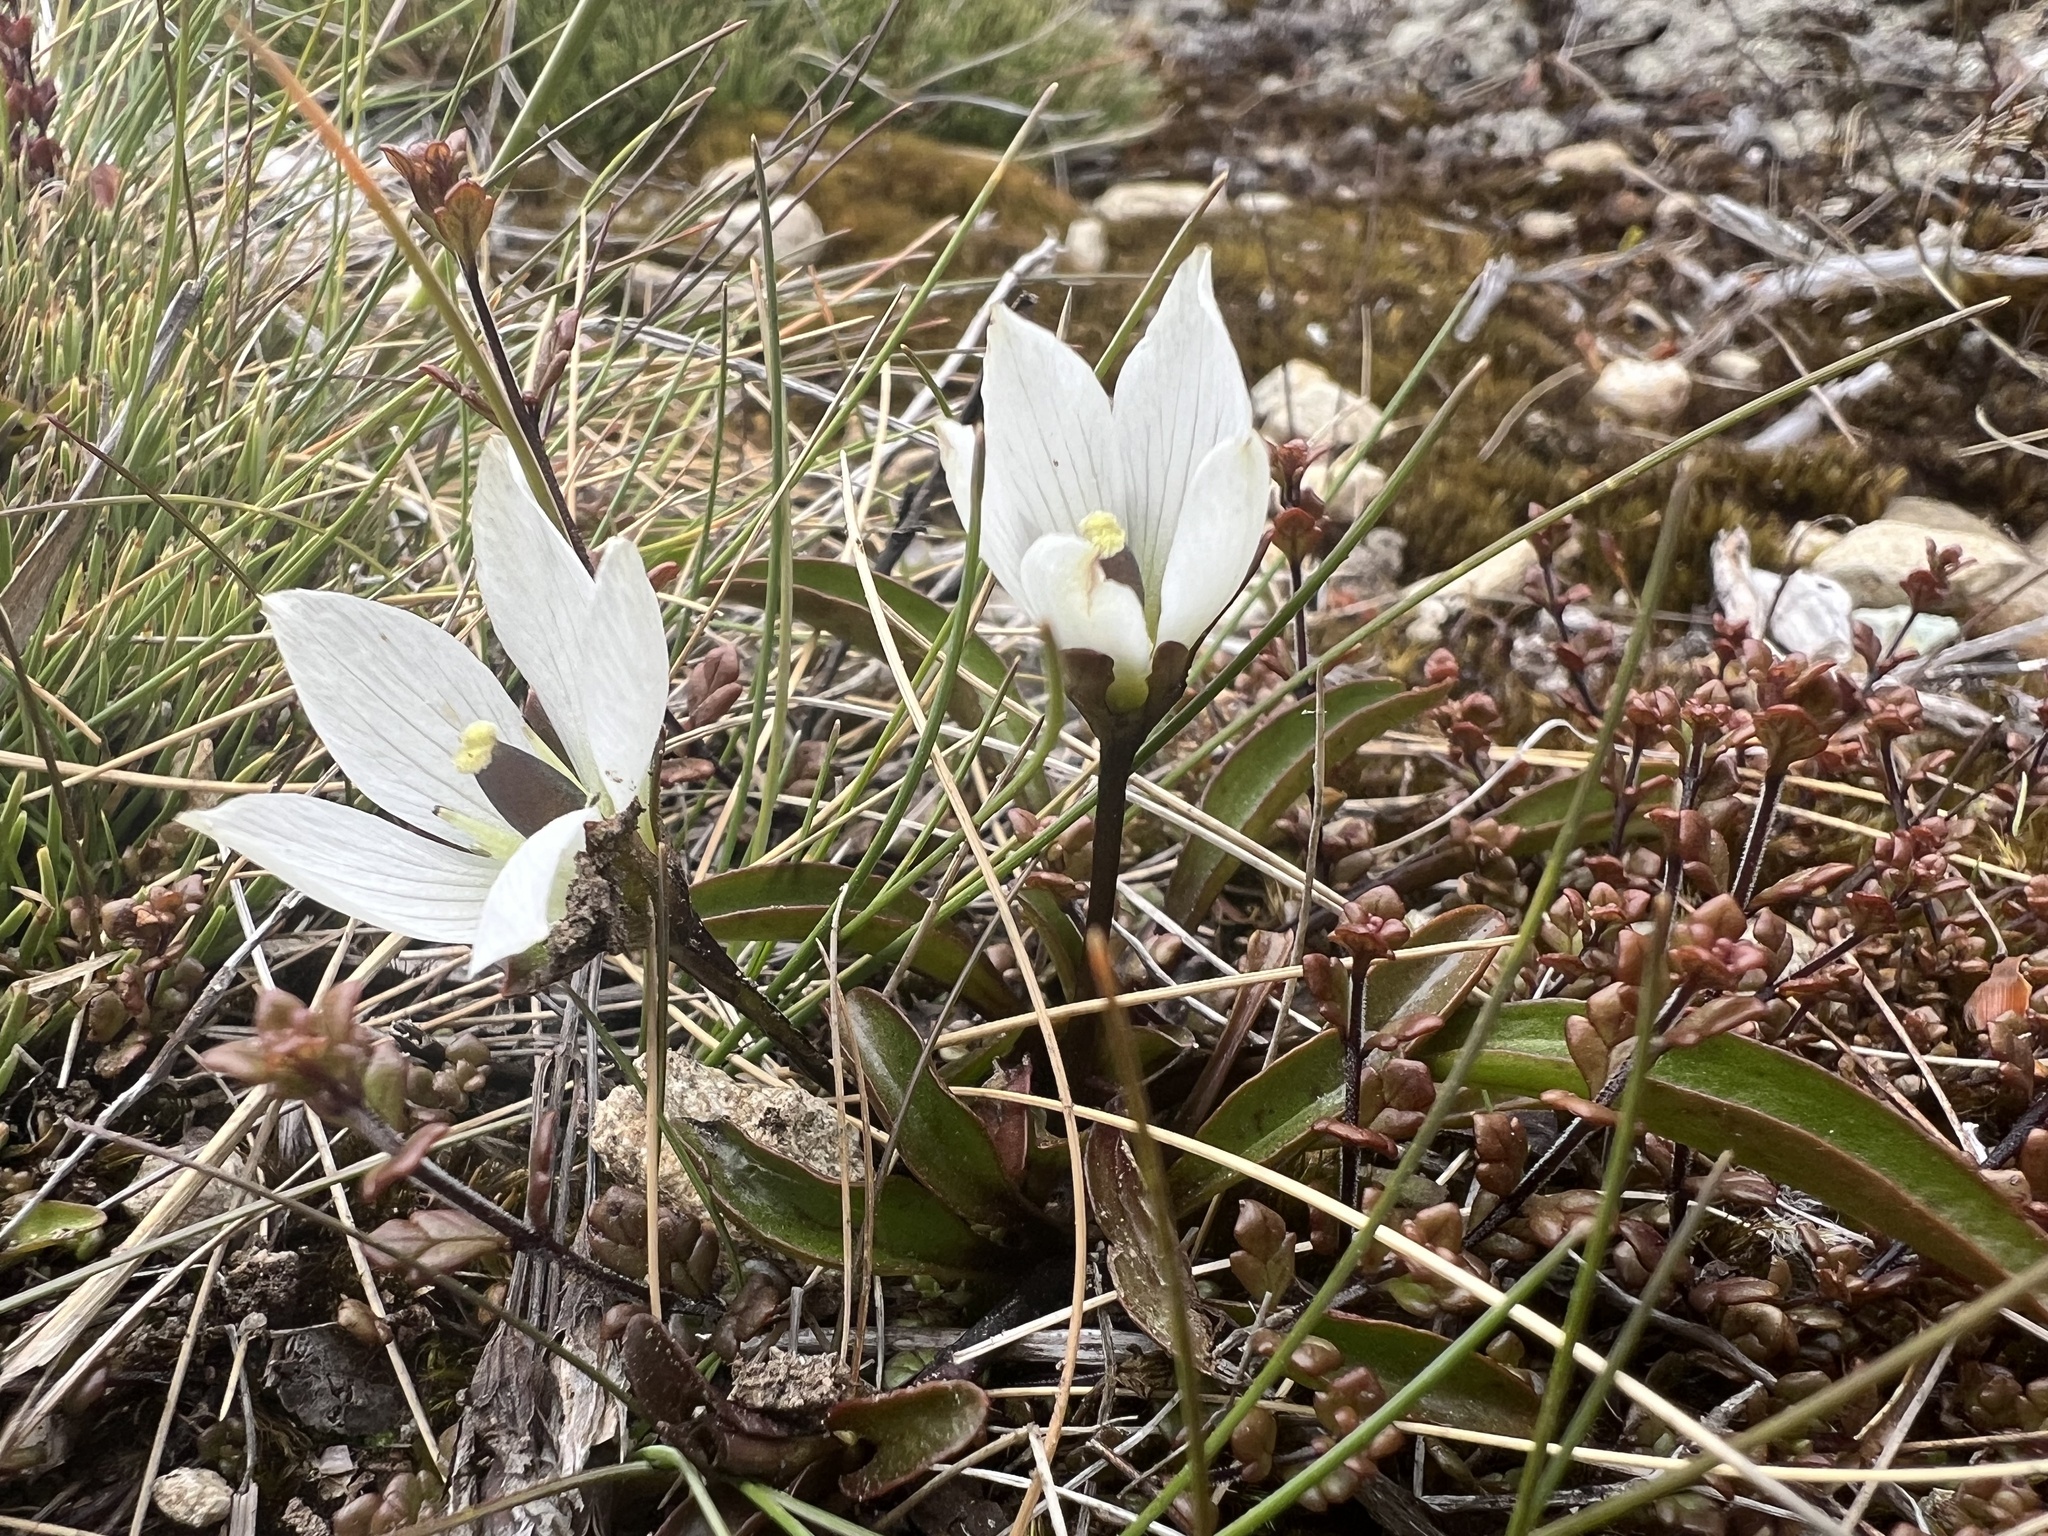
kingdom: Plantae
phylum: Tracheophyta
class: Magnoliopsida
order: Gentianales
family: Gentianaceae
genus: Gentianella
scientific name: Gentianella bellidifolia
